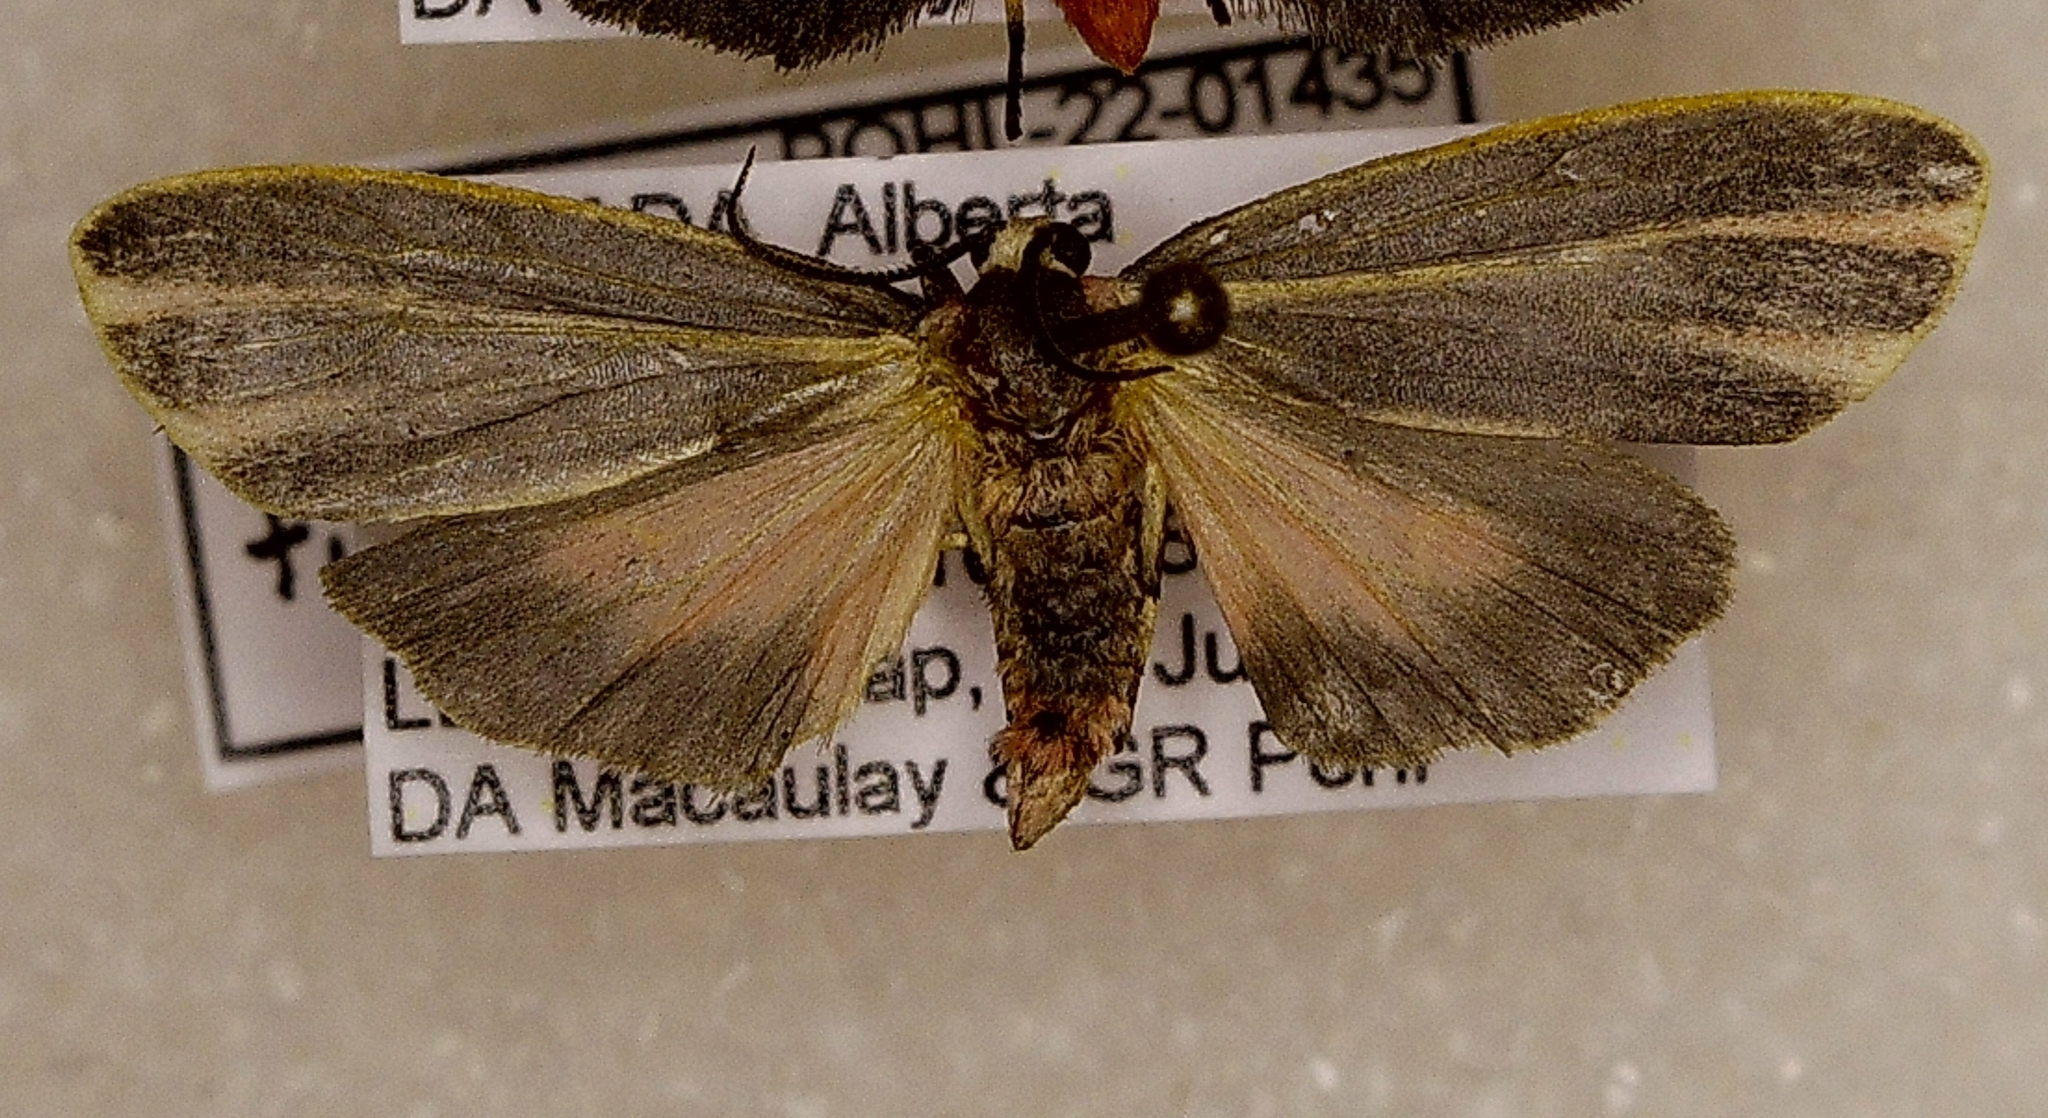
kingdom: Animalia
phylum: Arthropoda
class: Insecta
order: Lepidoptera
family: Erebidae
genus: Hypoprepia
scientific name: Hypoprepia fucosa
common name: Painted lichen moth
